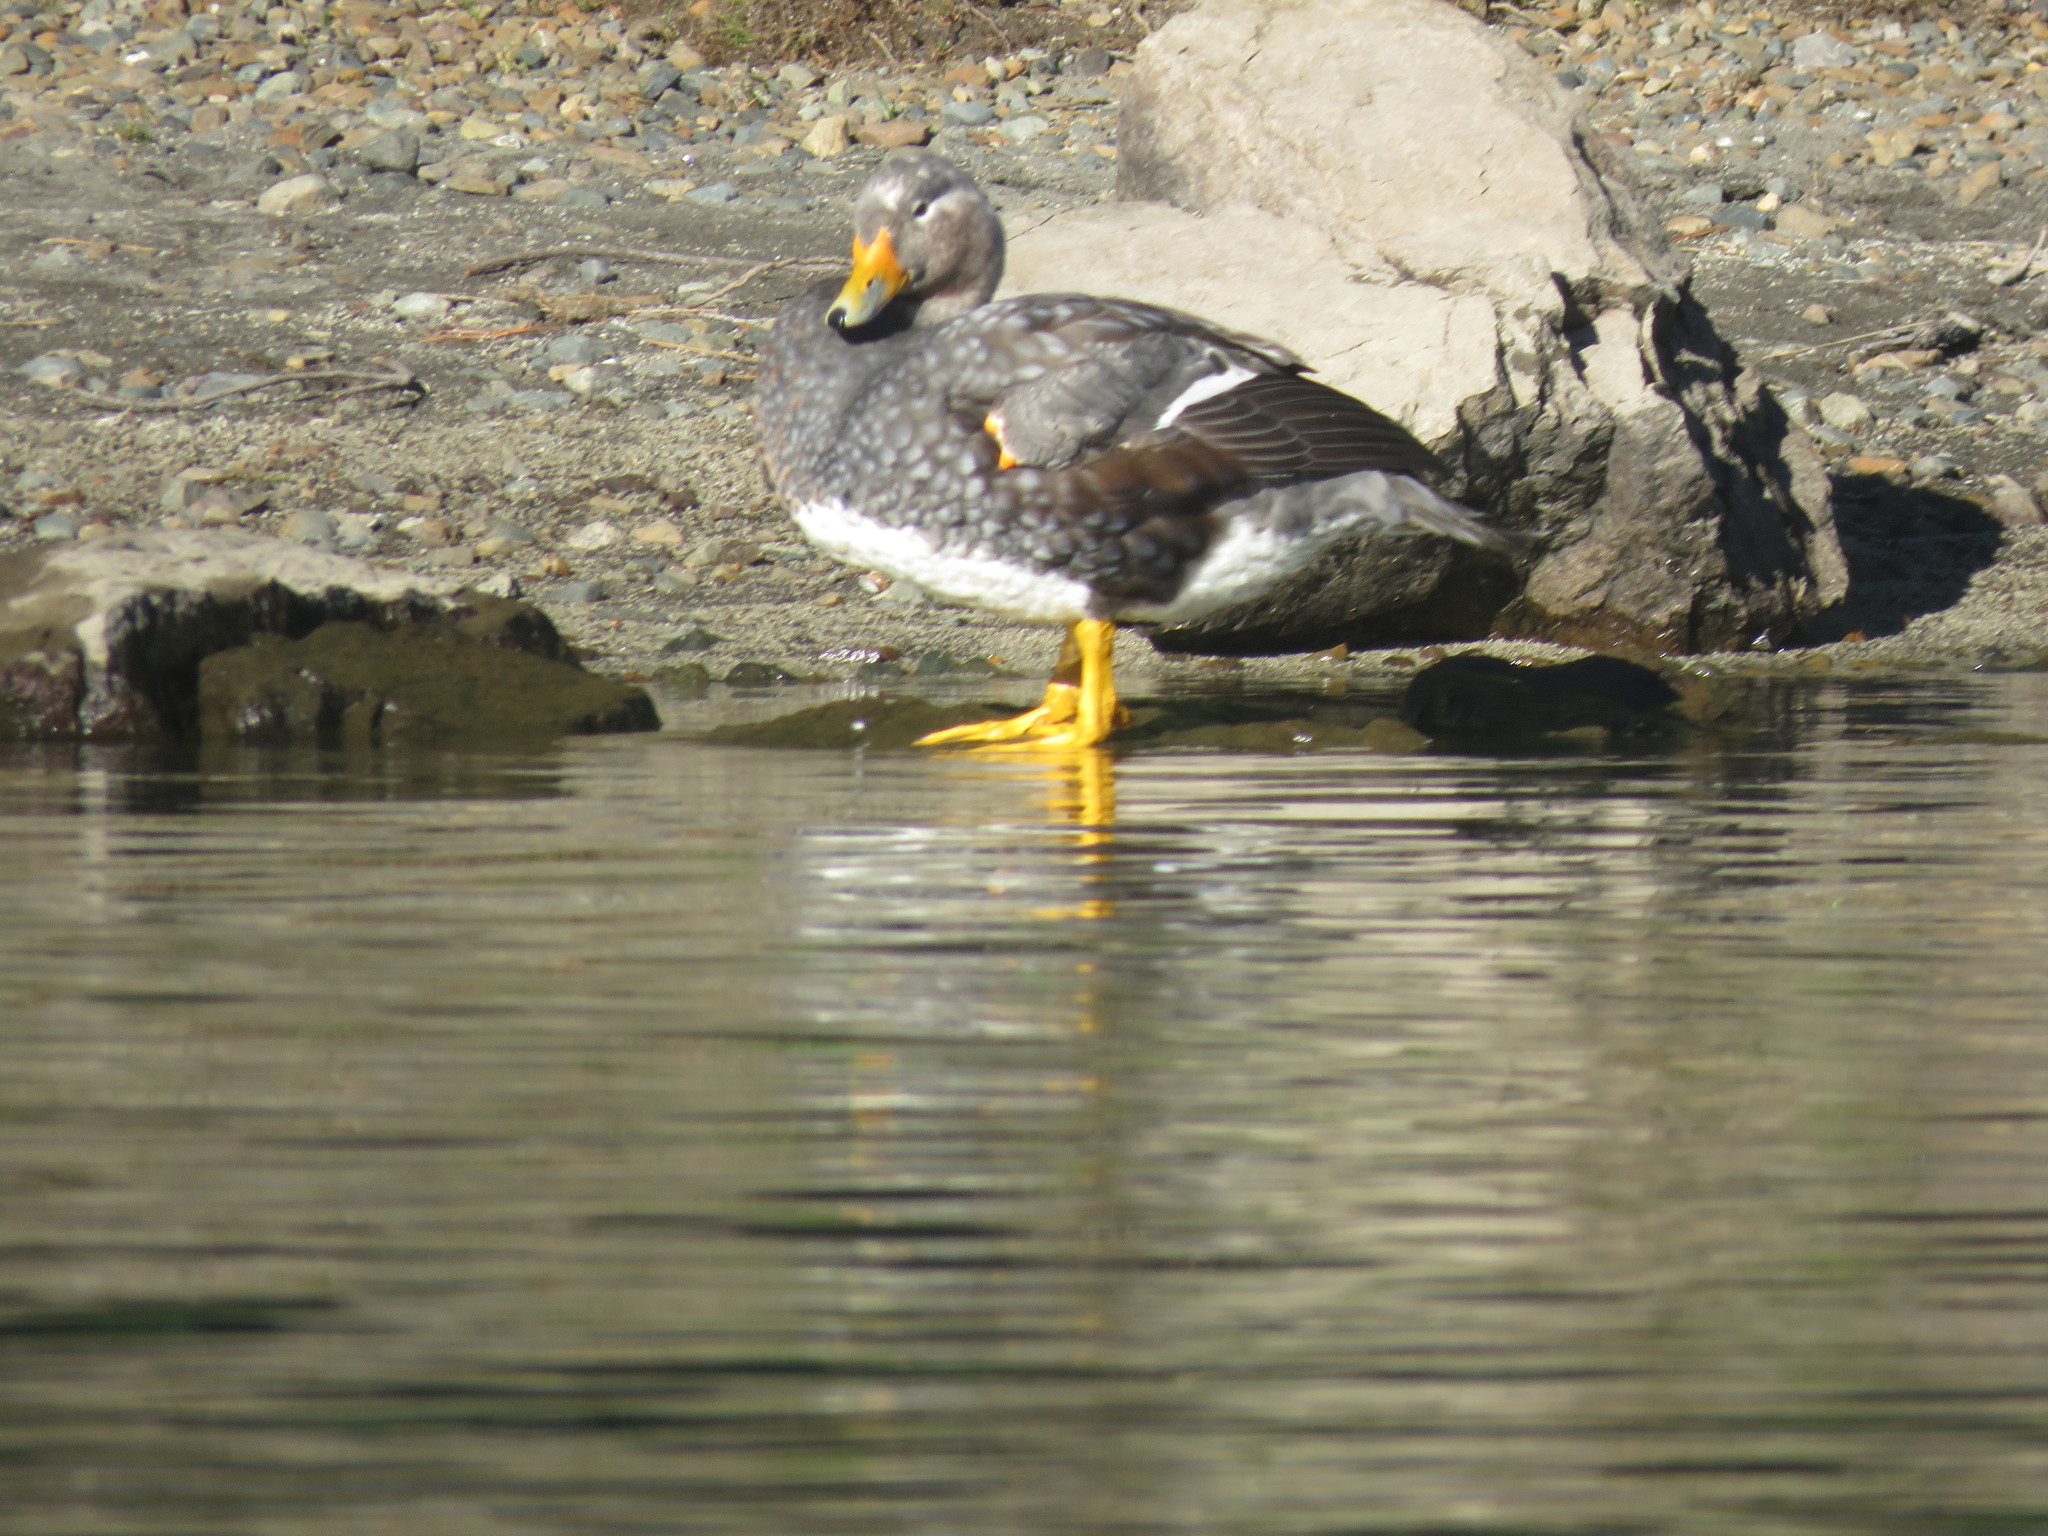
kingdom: Animalia
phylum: Chordata
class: Aves
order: Anseriformes
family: Anatidae
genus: Tachyeres
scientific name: Tachyeres patachonicus
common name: Flying steamer duck
